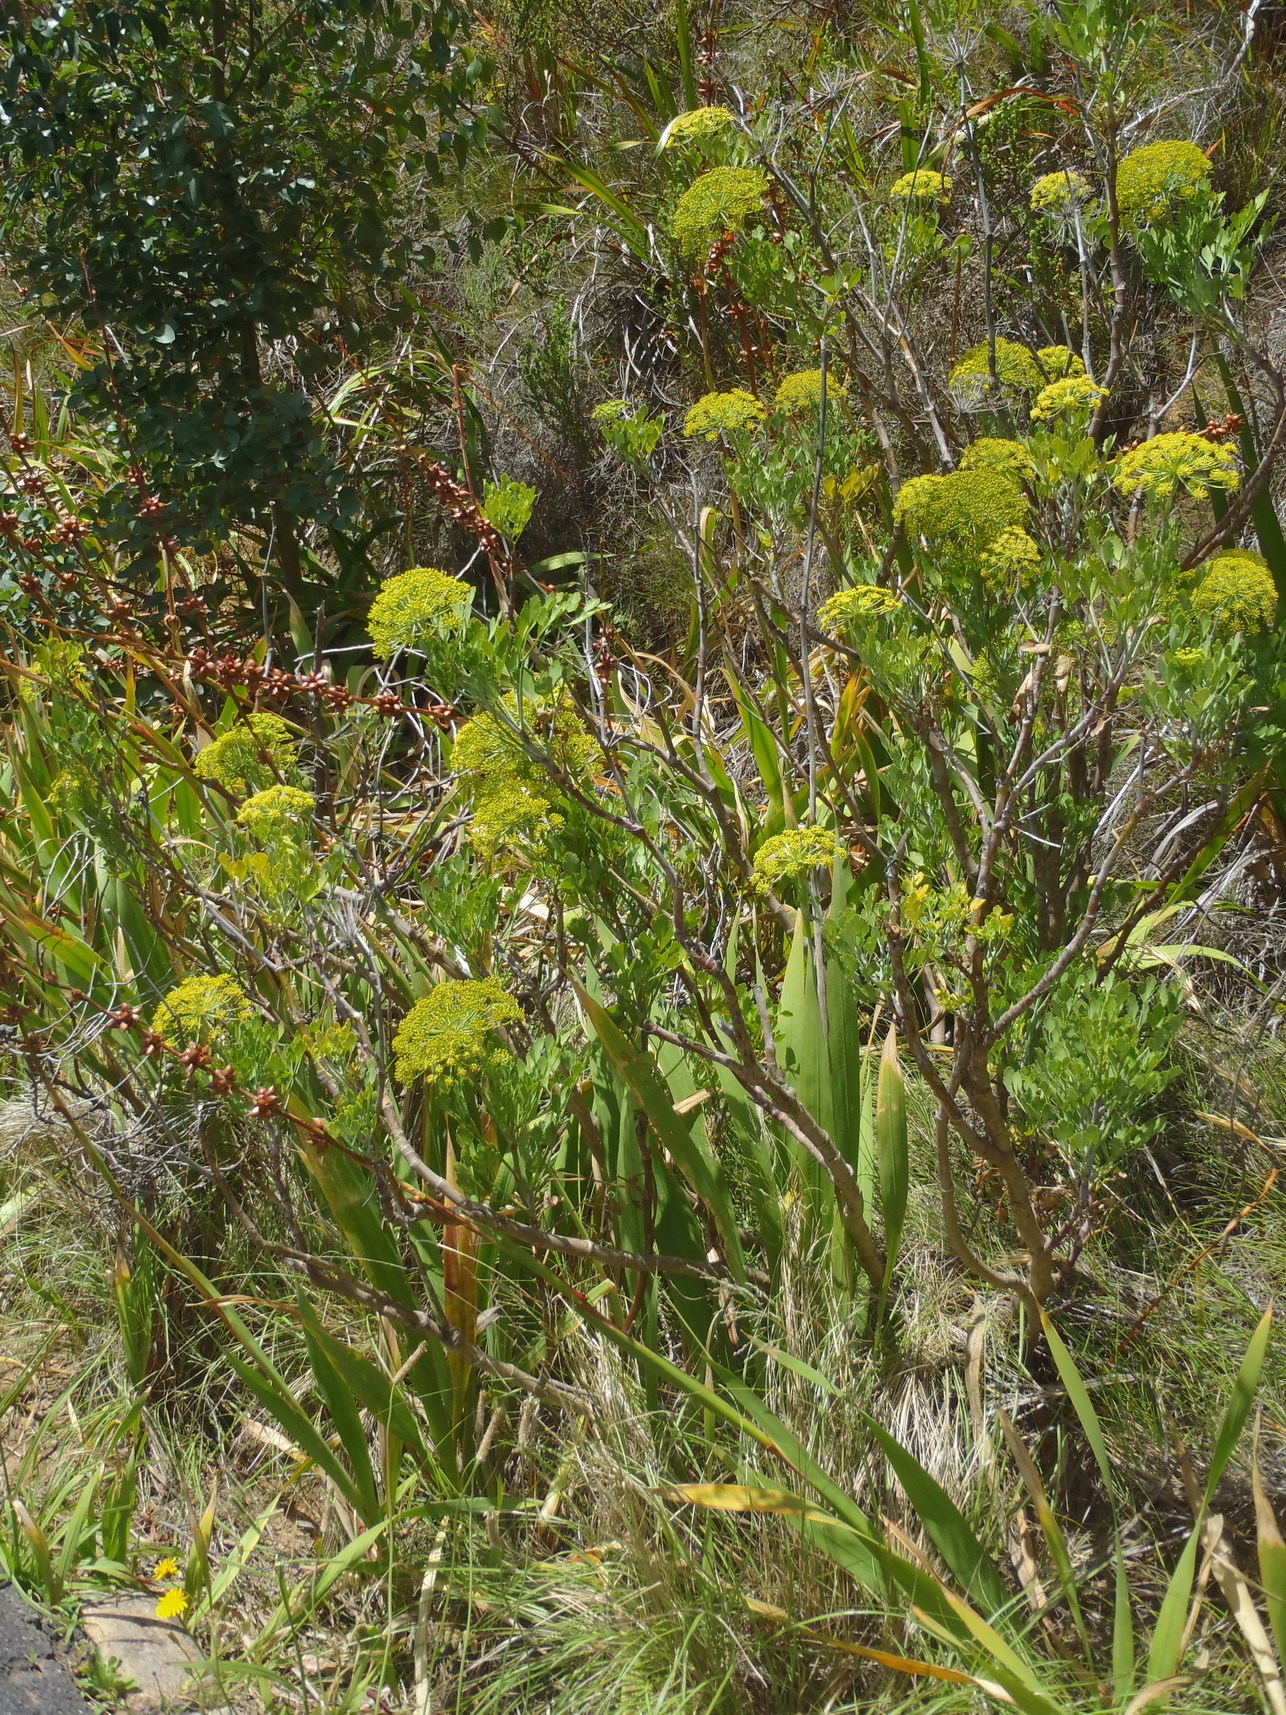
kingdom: Plantae
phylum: Tracheophyta
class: Magnoliopsida
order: Apiales
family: Apiaceae
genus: Notobubon
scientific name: Notobubon galbanum
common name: Blisterbush
